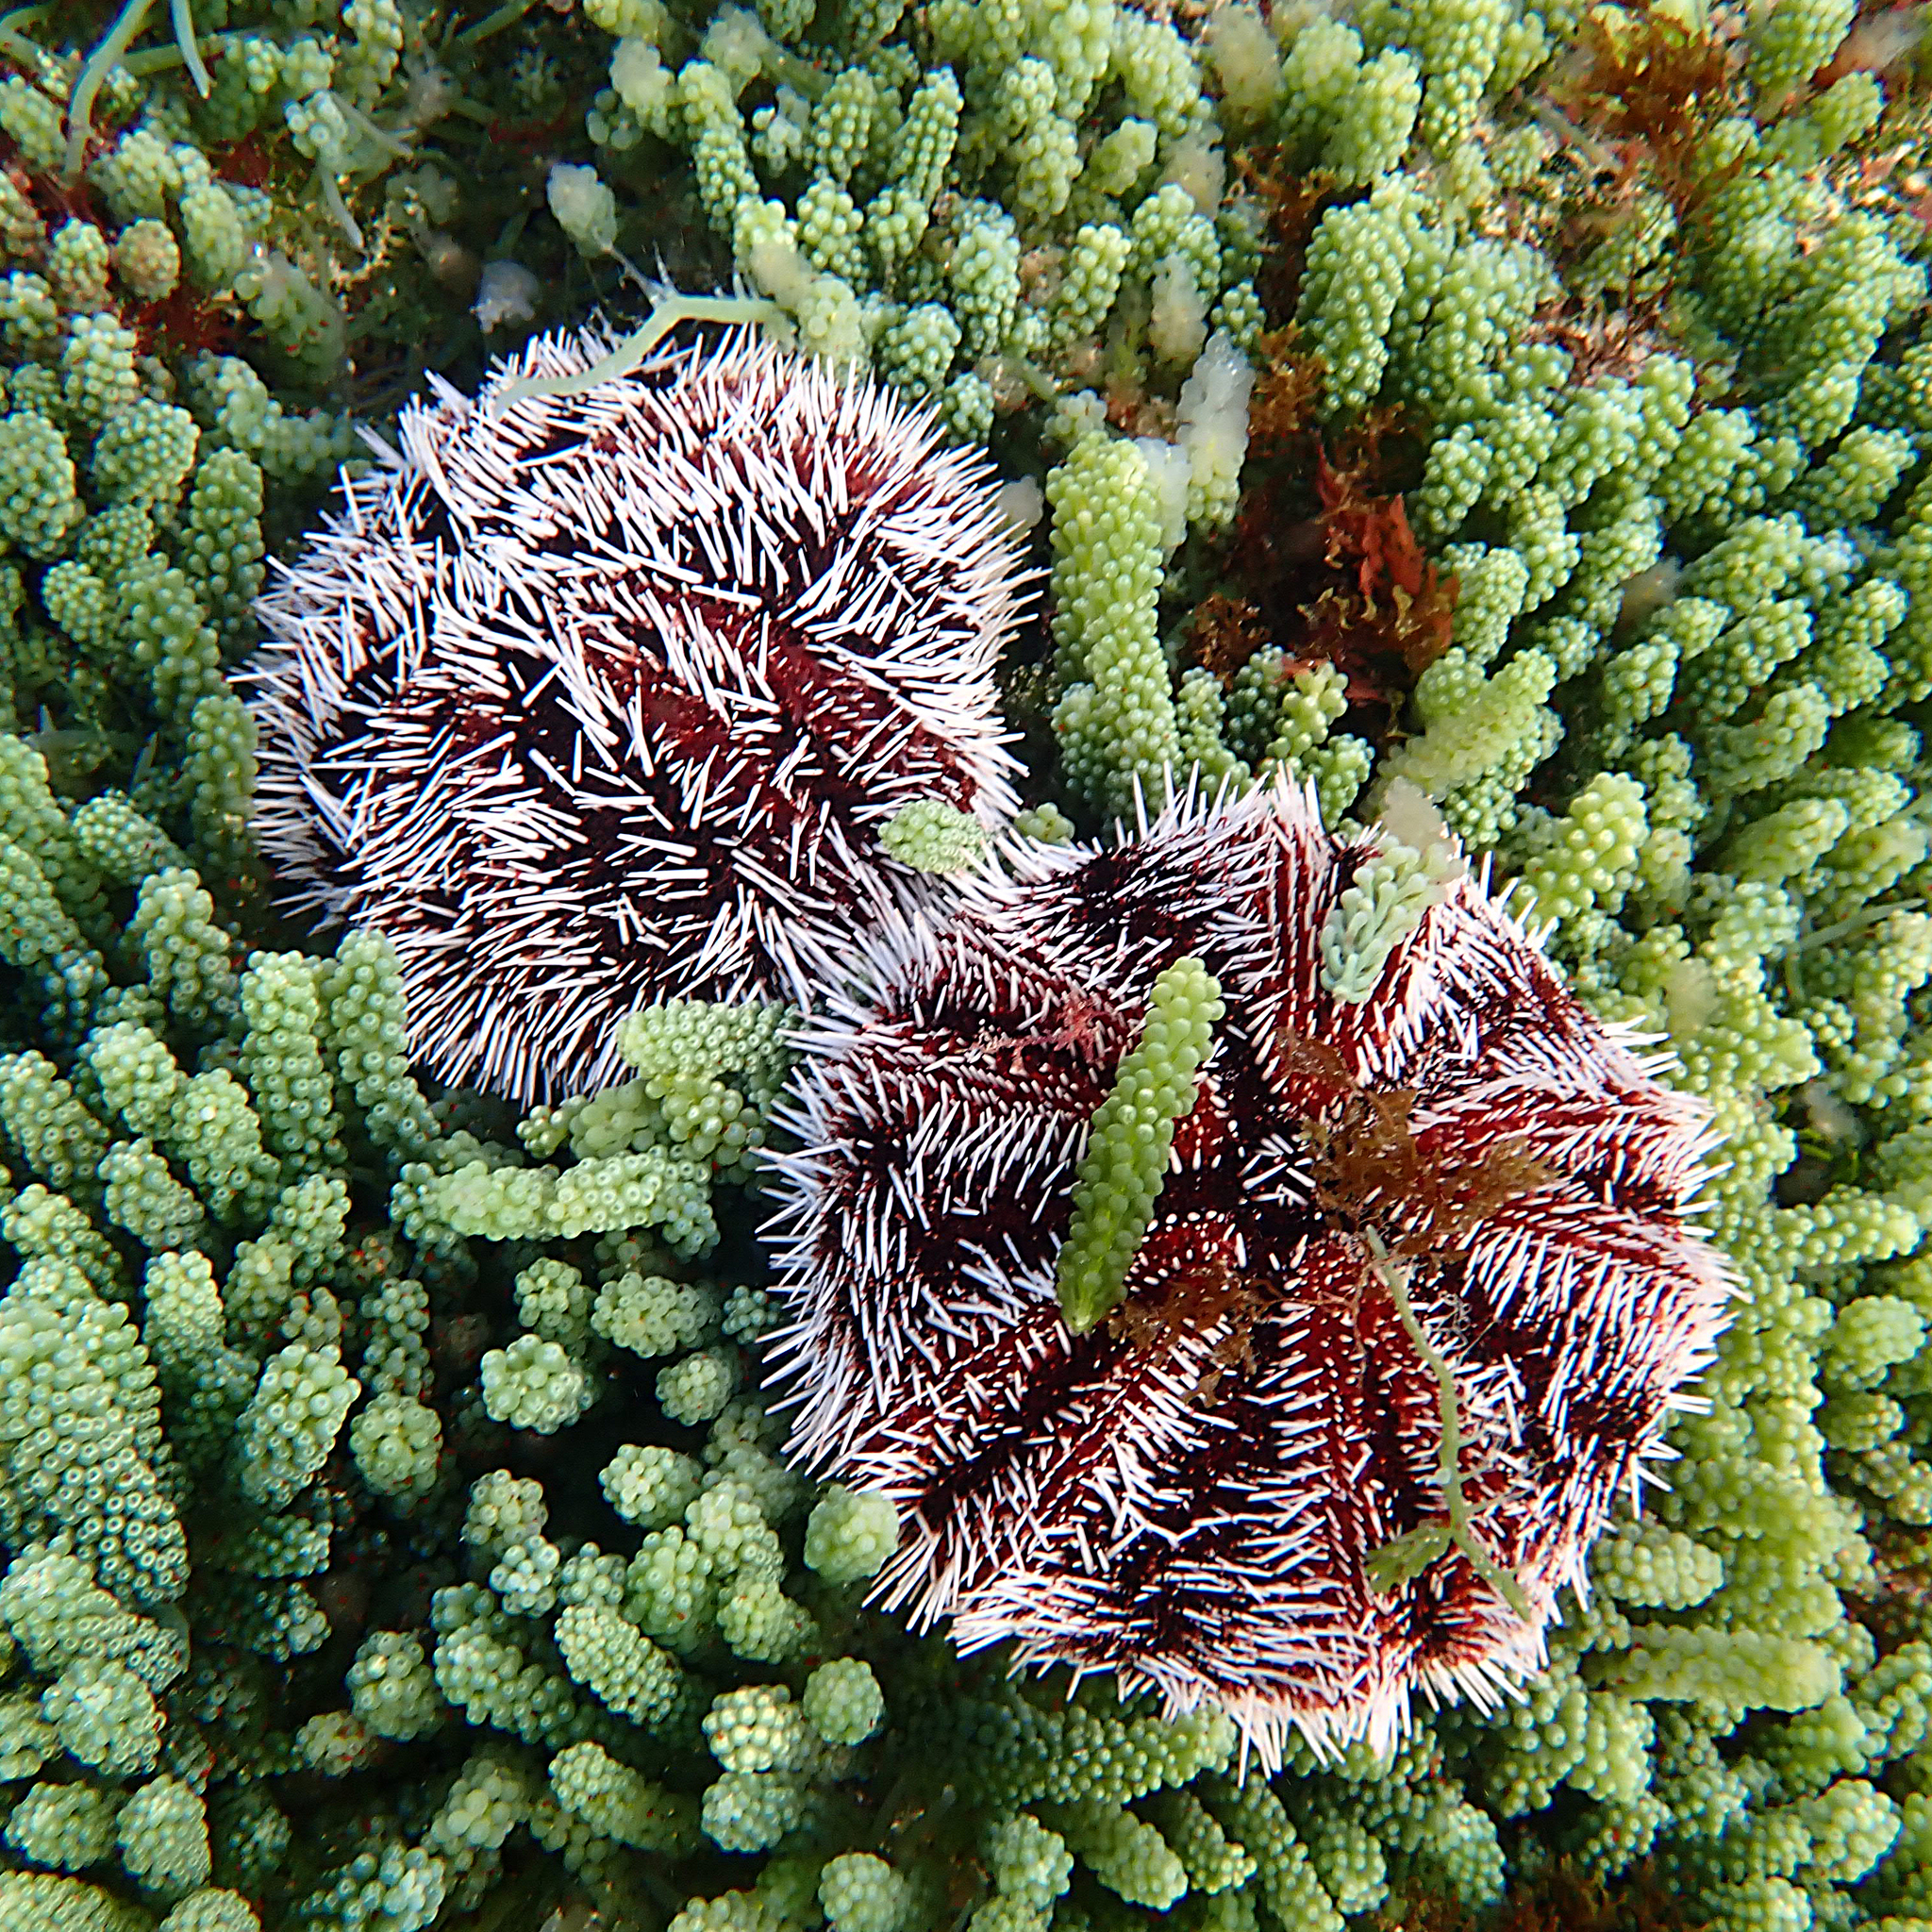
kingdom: Animalia
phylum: Echinodermata
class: Echinoidea
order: Camarodonta
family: Toxopneustidae
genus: Tripneustes
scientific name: Tripneustes gratilla
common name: Bischofsmützenseeigel
